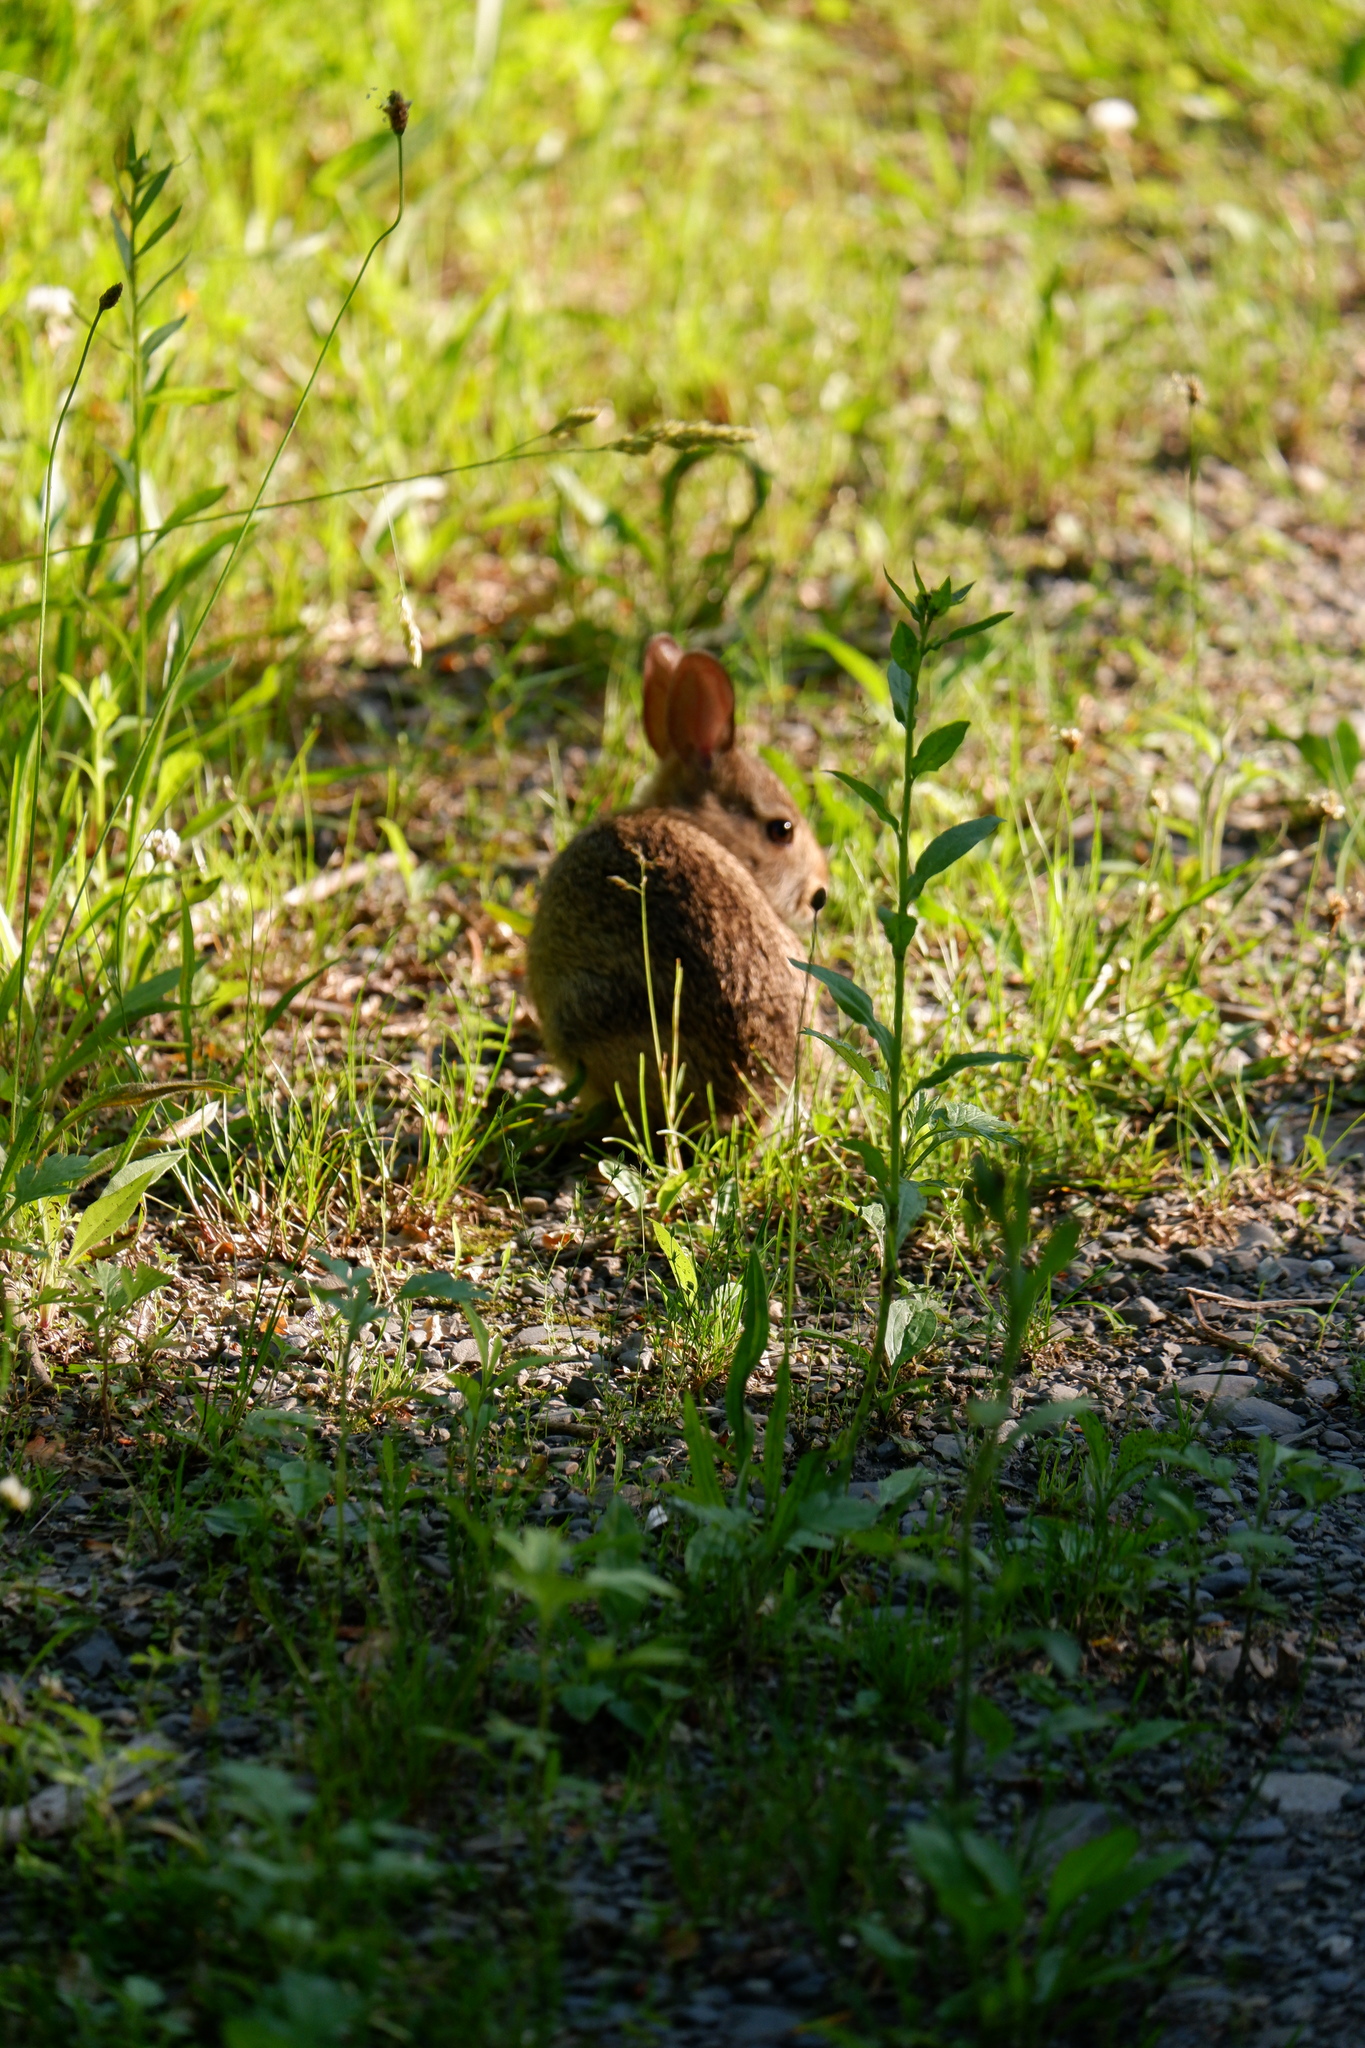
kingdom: Animalia
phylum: Chordata
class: Mammalia
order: Lagomorpha
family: Leporidae
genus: Sylvilagus
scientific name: Sylvilagus floridanus
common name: Eastern cottontail
